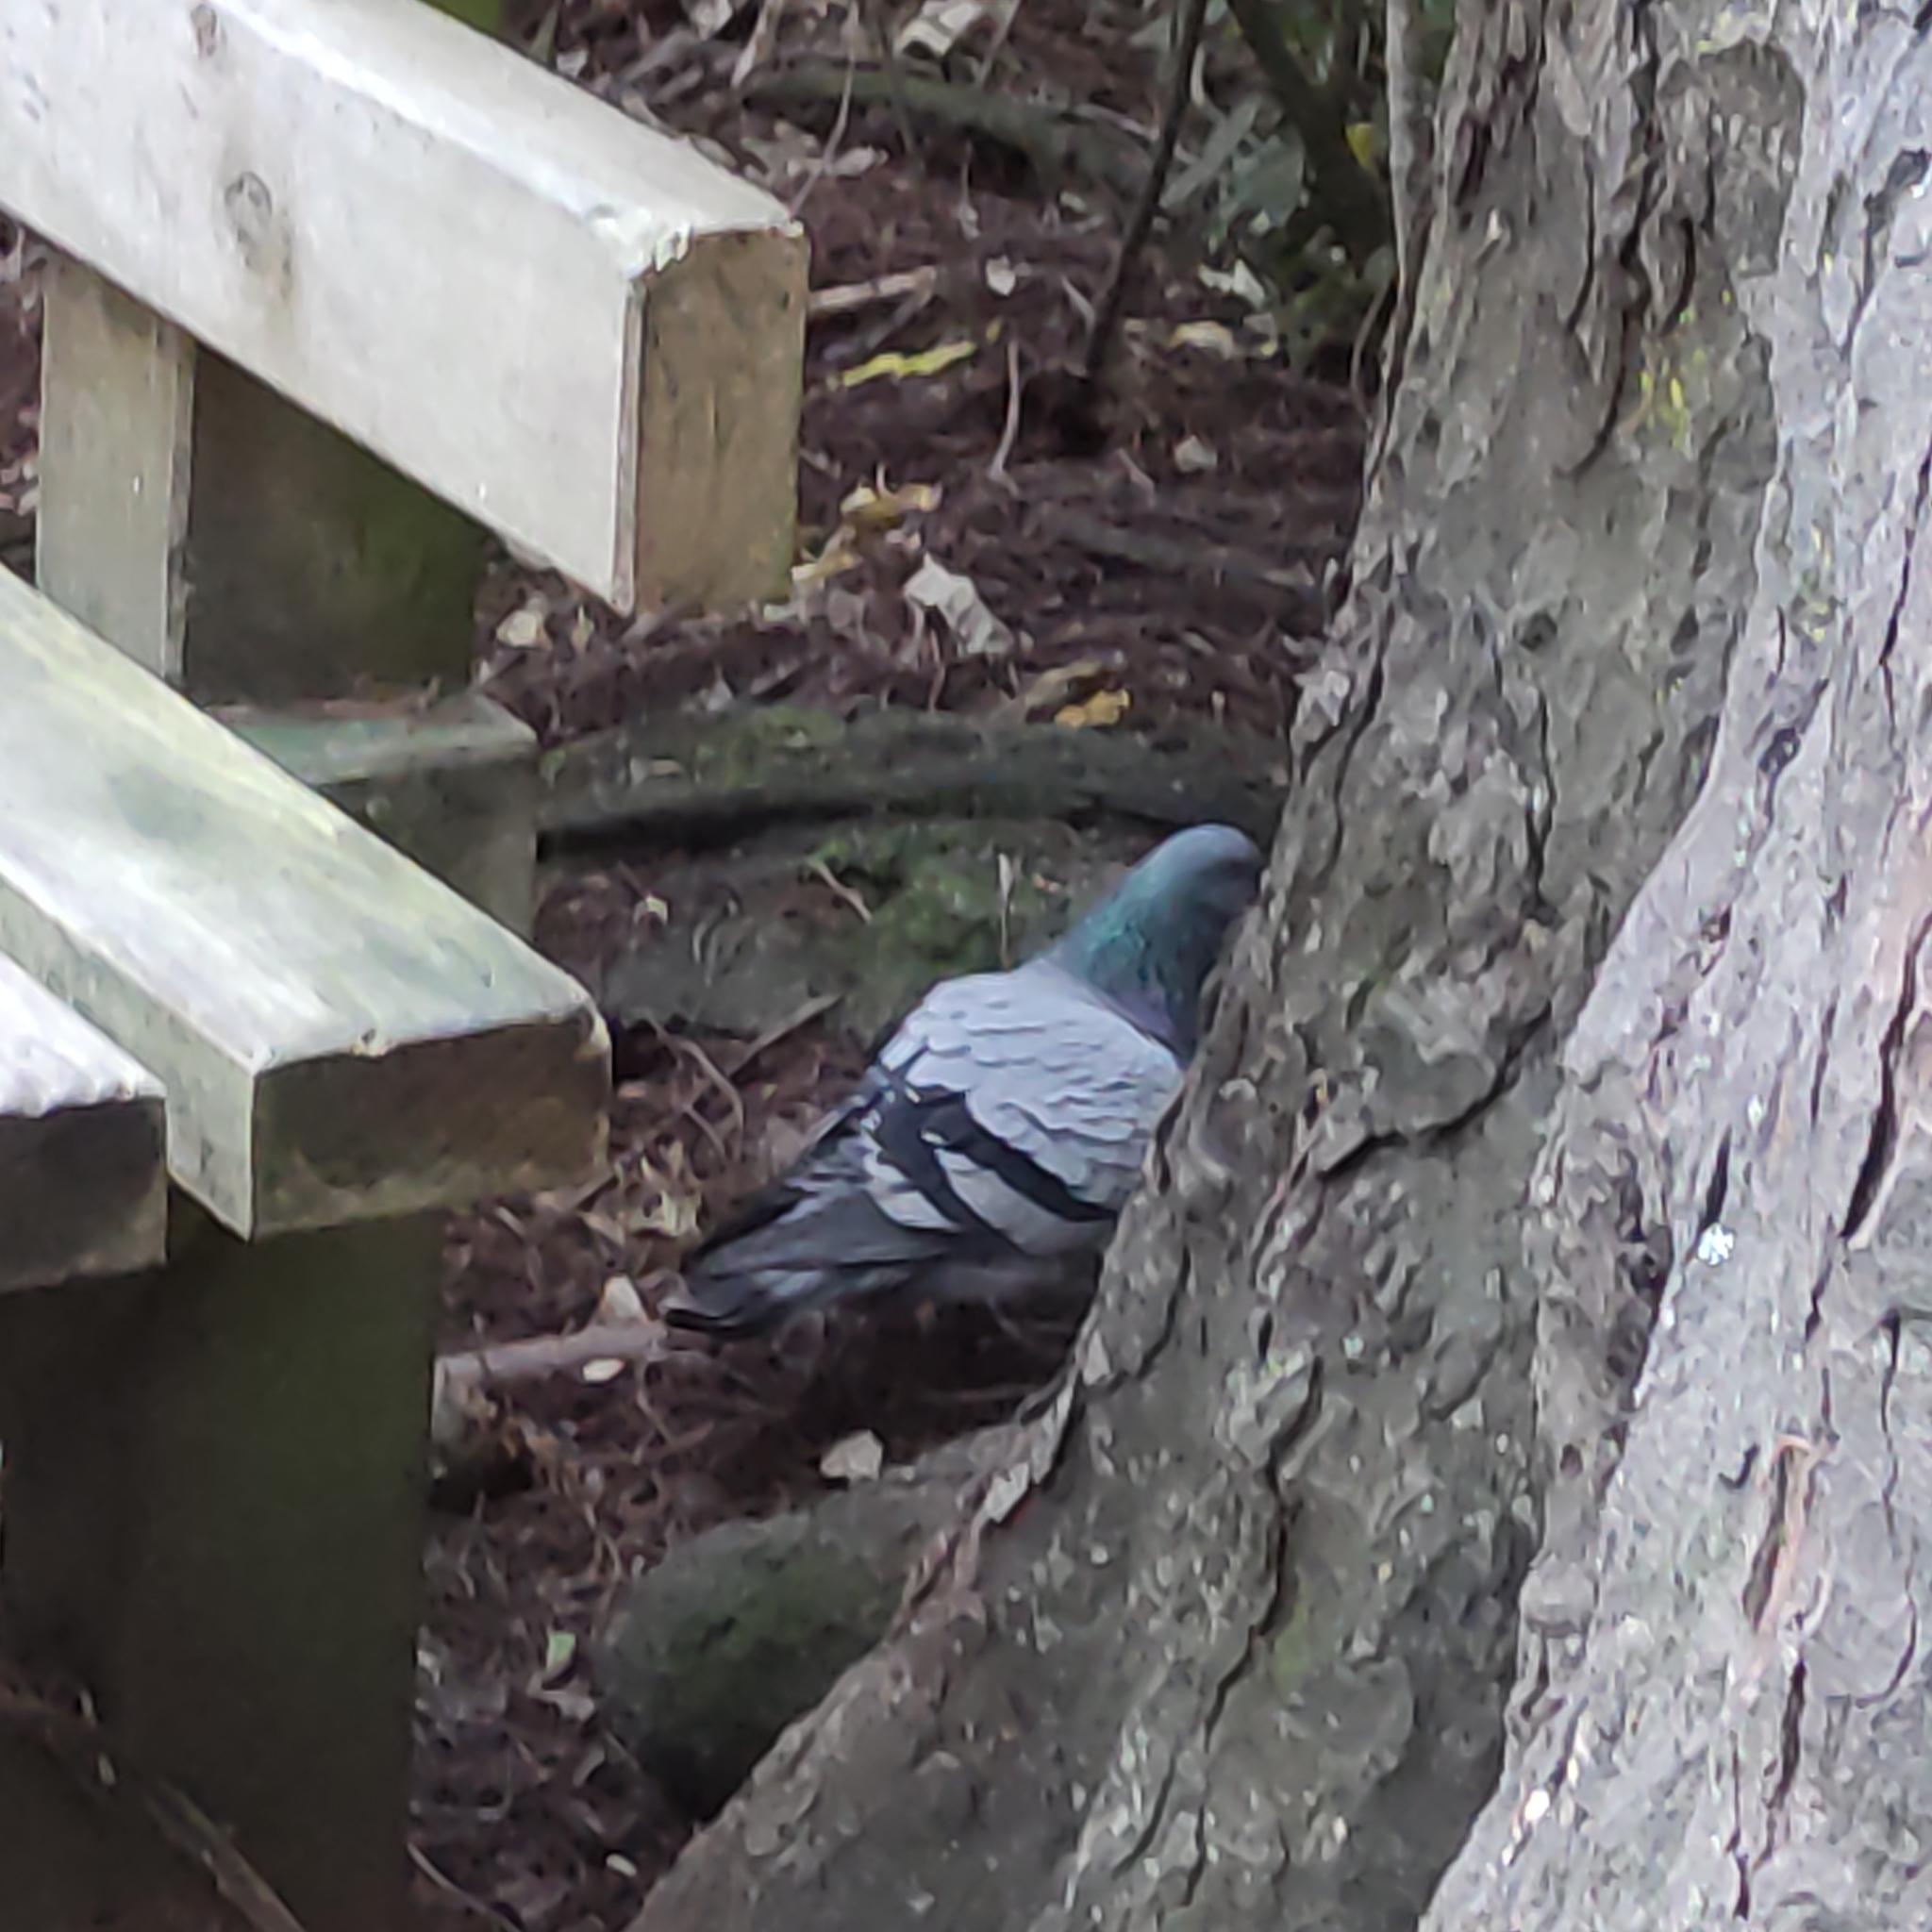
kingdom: Animalia
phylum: Chordata
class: Aves
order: Columbiformes
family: Columbidae
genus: Columba
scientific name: Columba livia
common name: Rock pigeon
